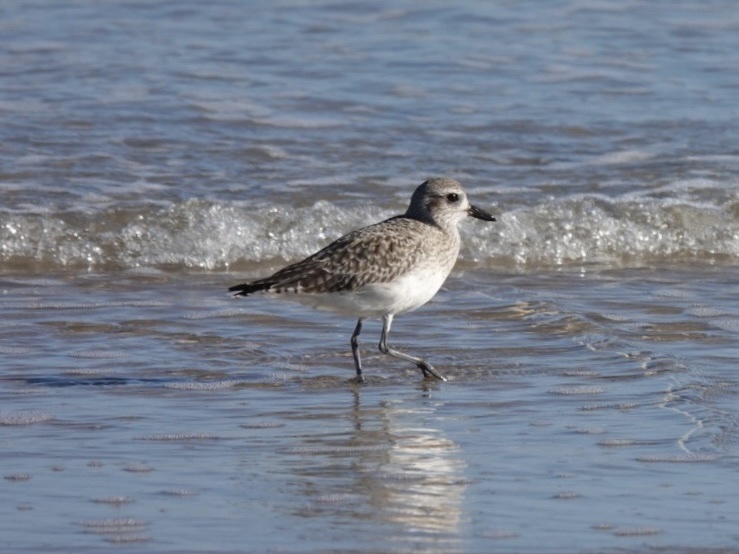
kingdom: Animalia
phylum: Chordata
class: Aves
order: Charadriiformes
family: Charadriidae
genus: Pluvialis
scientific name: Pluvialis squatarola
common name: Grey plover
